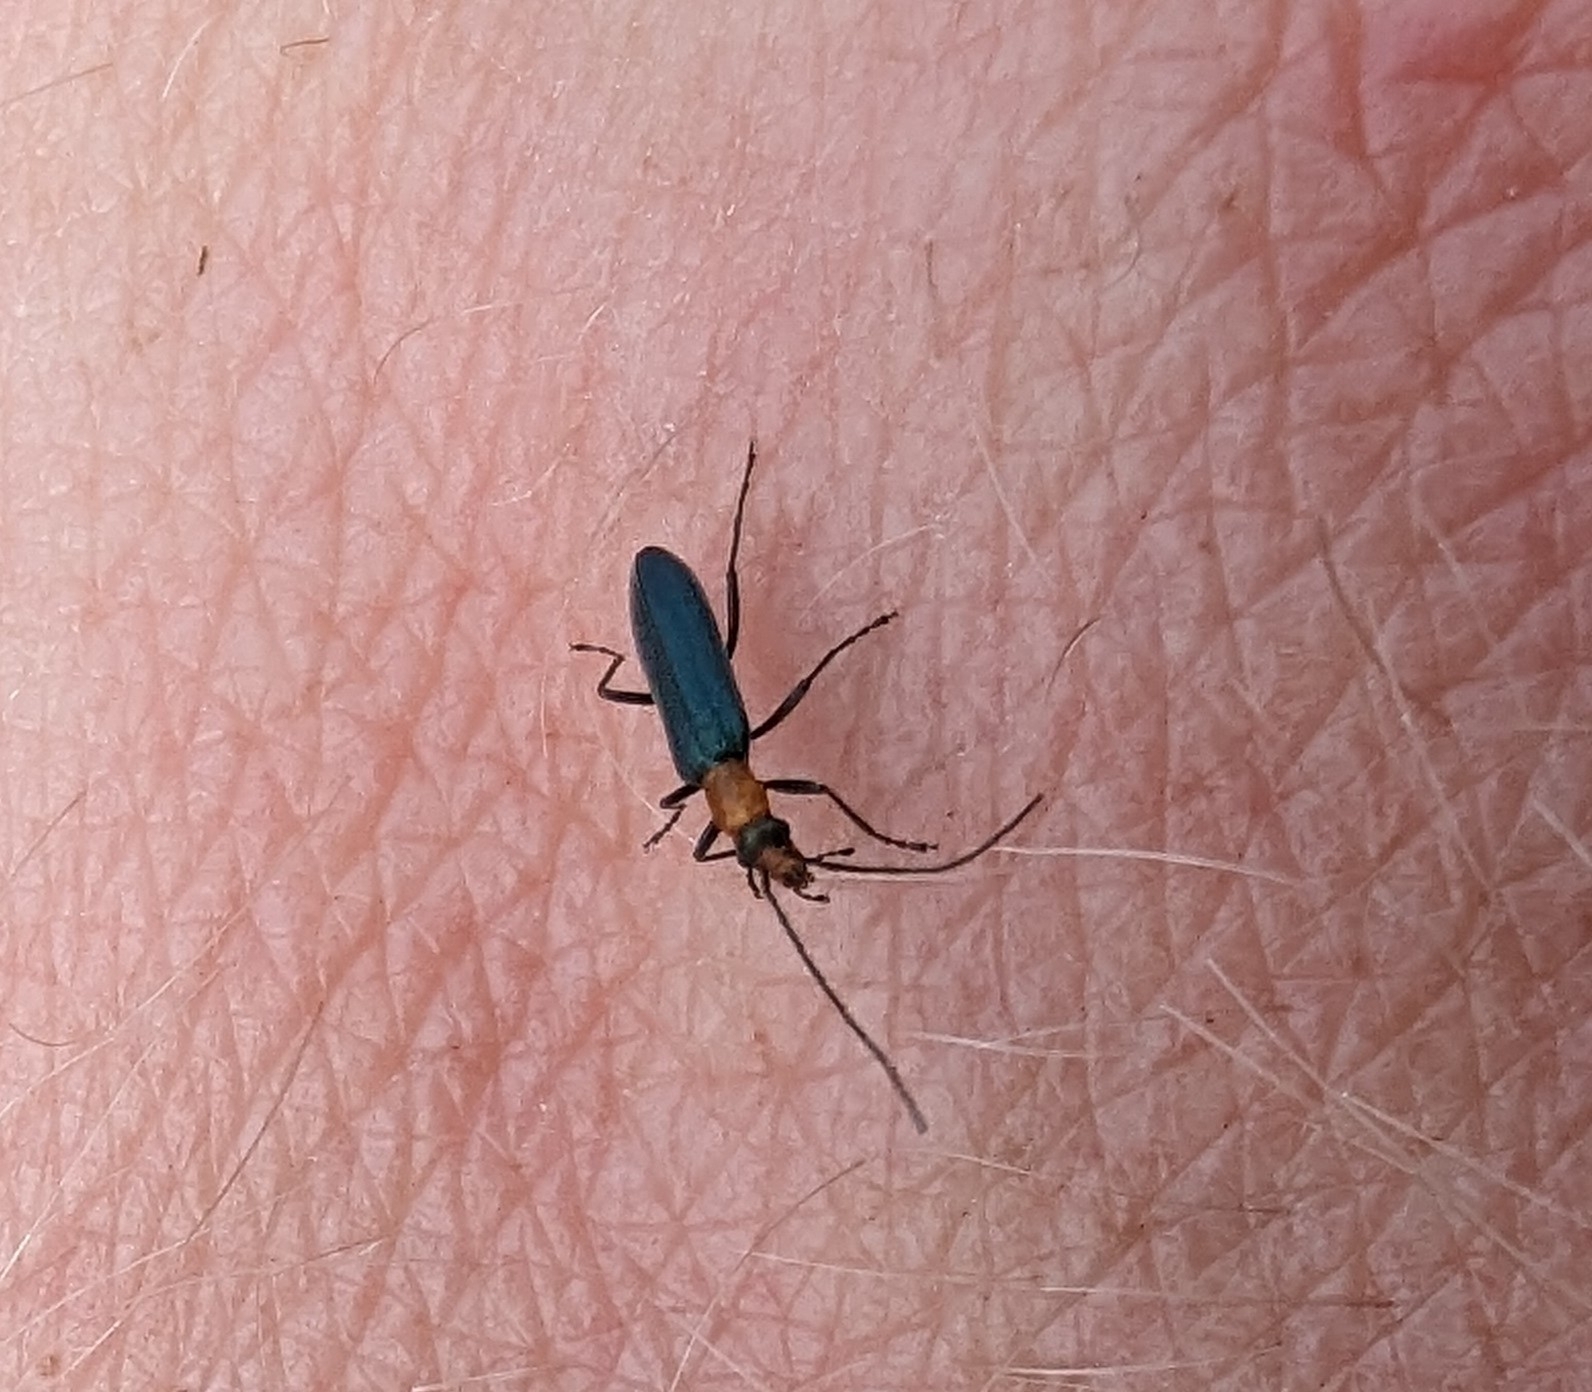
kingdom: Animalia
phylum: Arthropoda
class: Insecta
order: Coleoptera
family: Oedemeridae
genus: Heliocis
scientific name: Heliocis repanda
